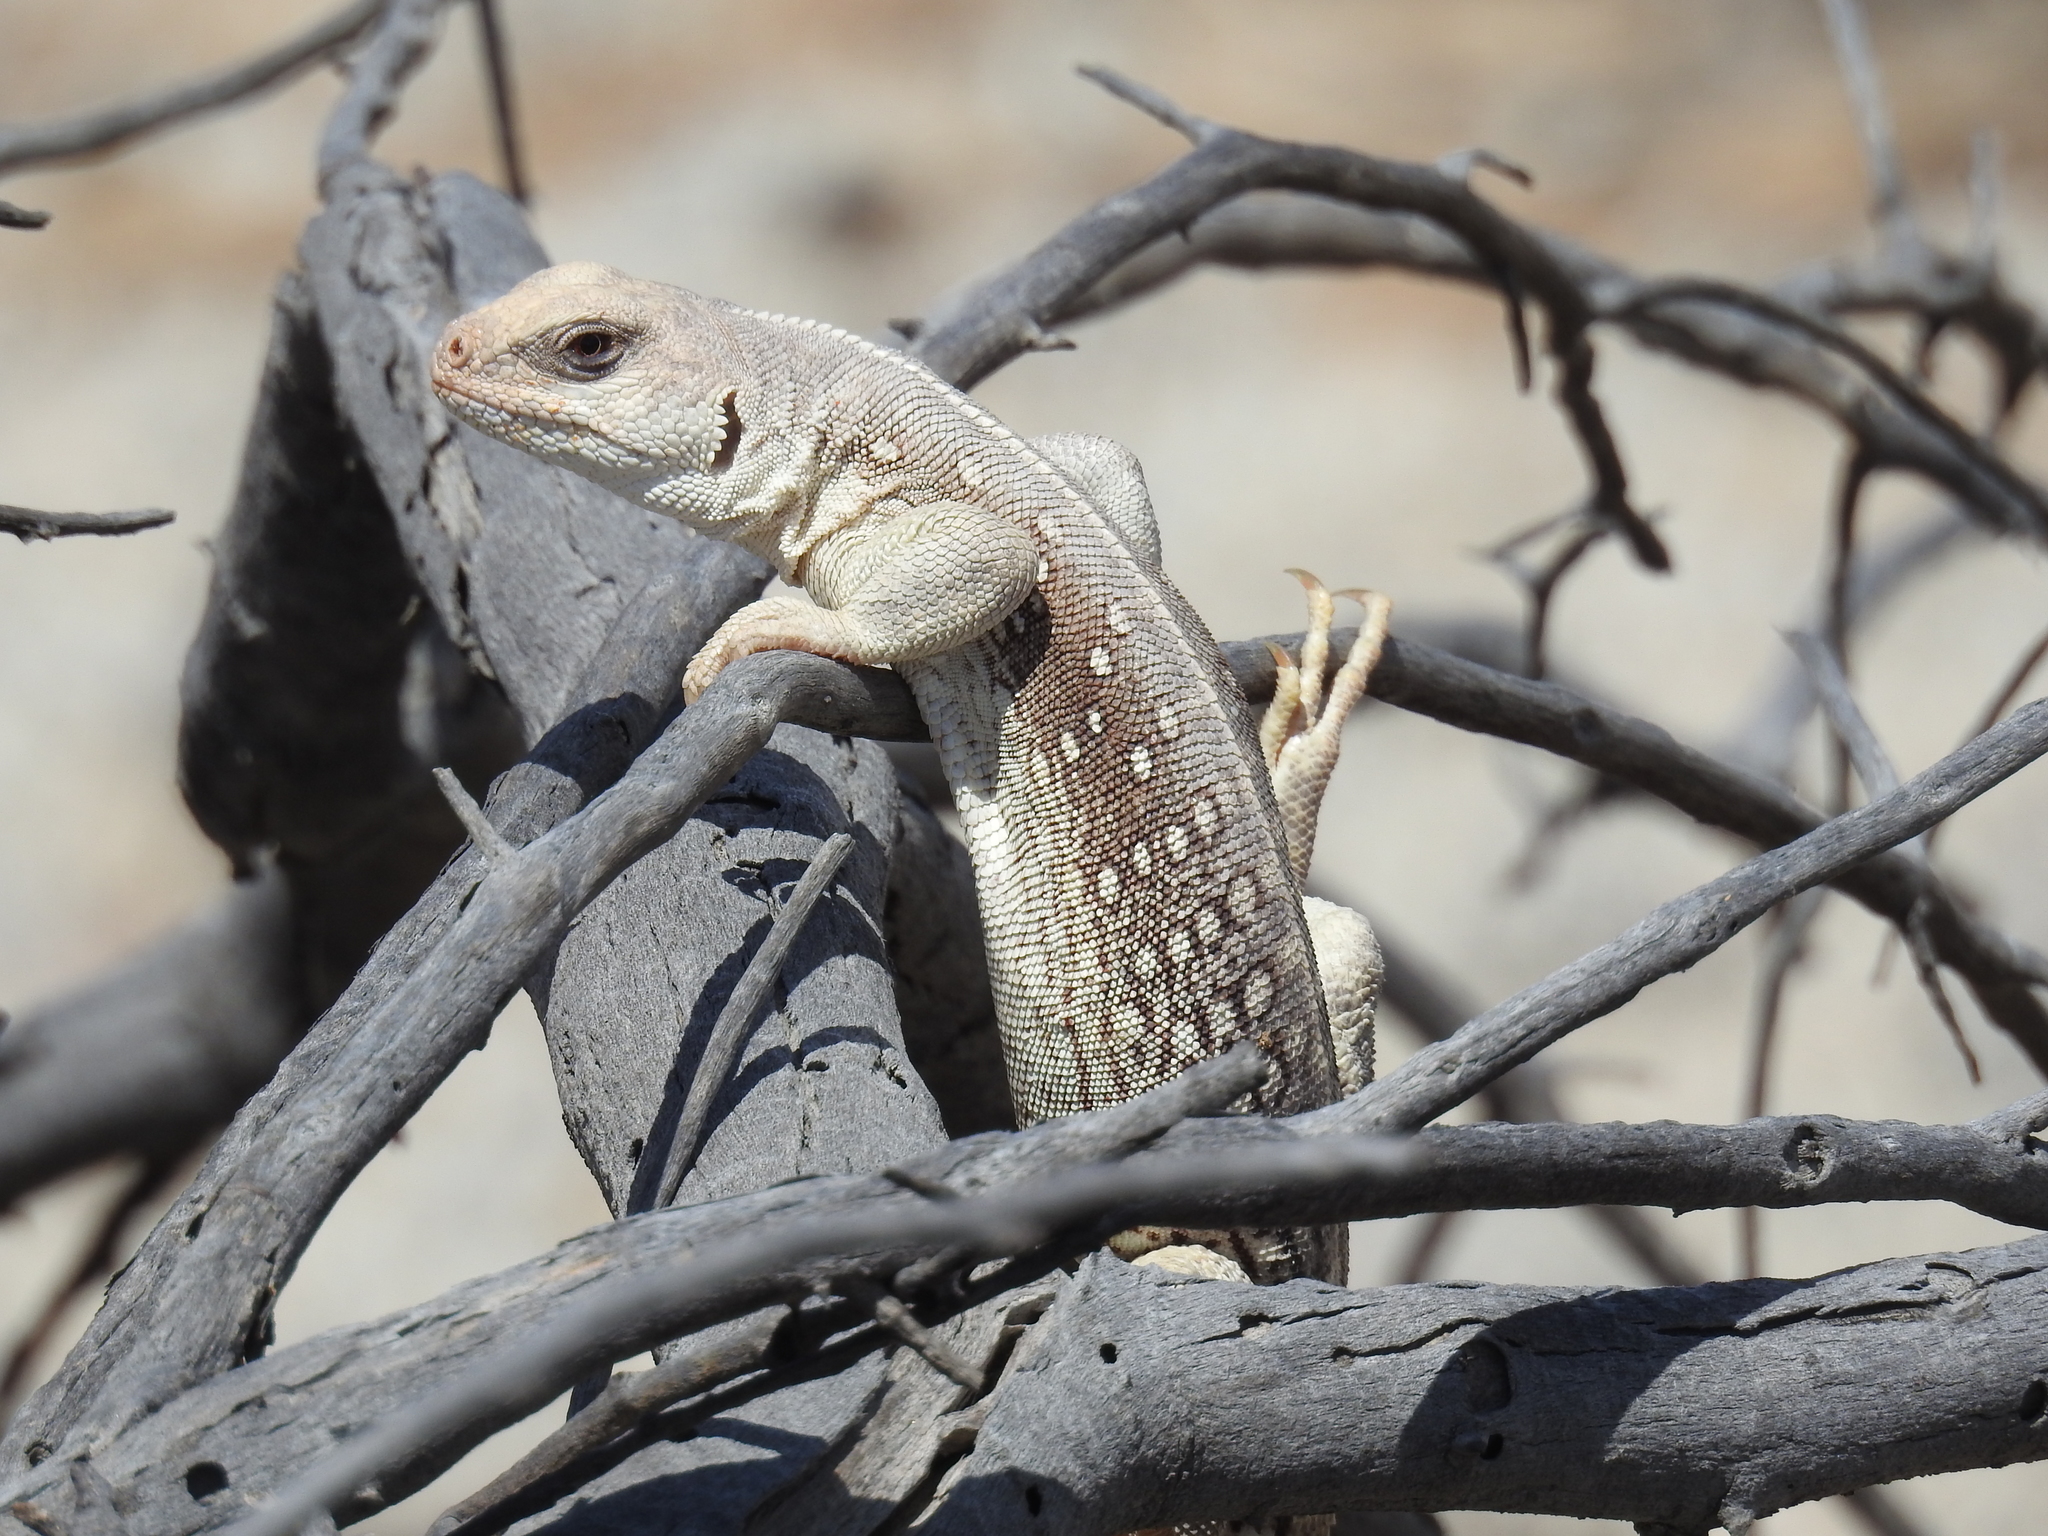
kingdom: Animalia
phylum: Chordata
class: Squamata
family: Iguanidae
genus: Dipsosaurus
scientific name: Dipsosaurus dorsalis
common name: Desert iguana
